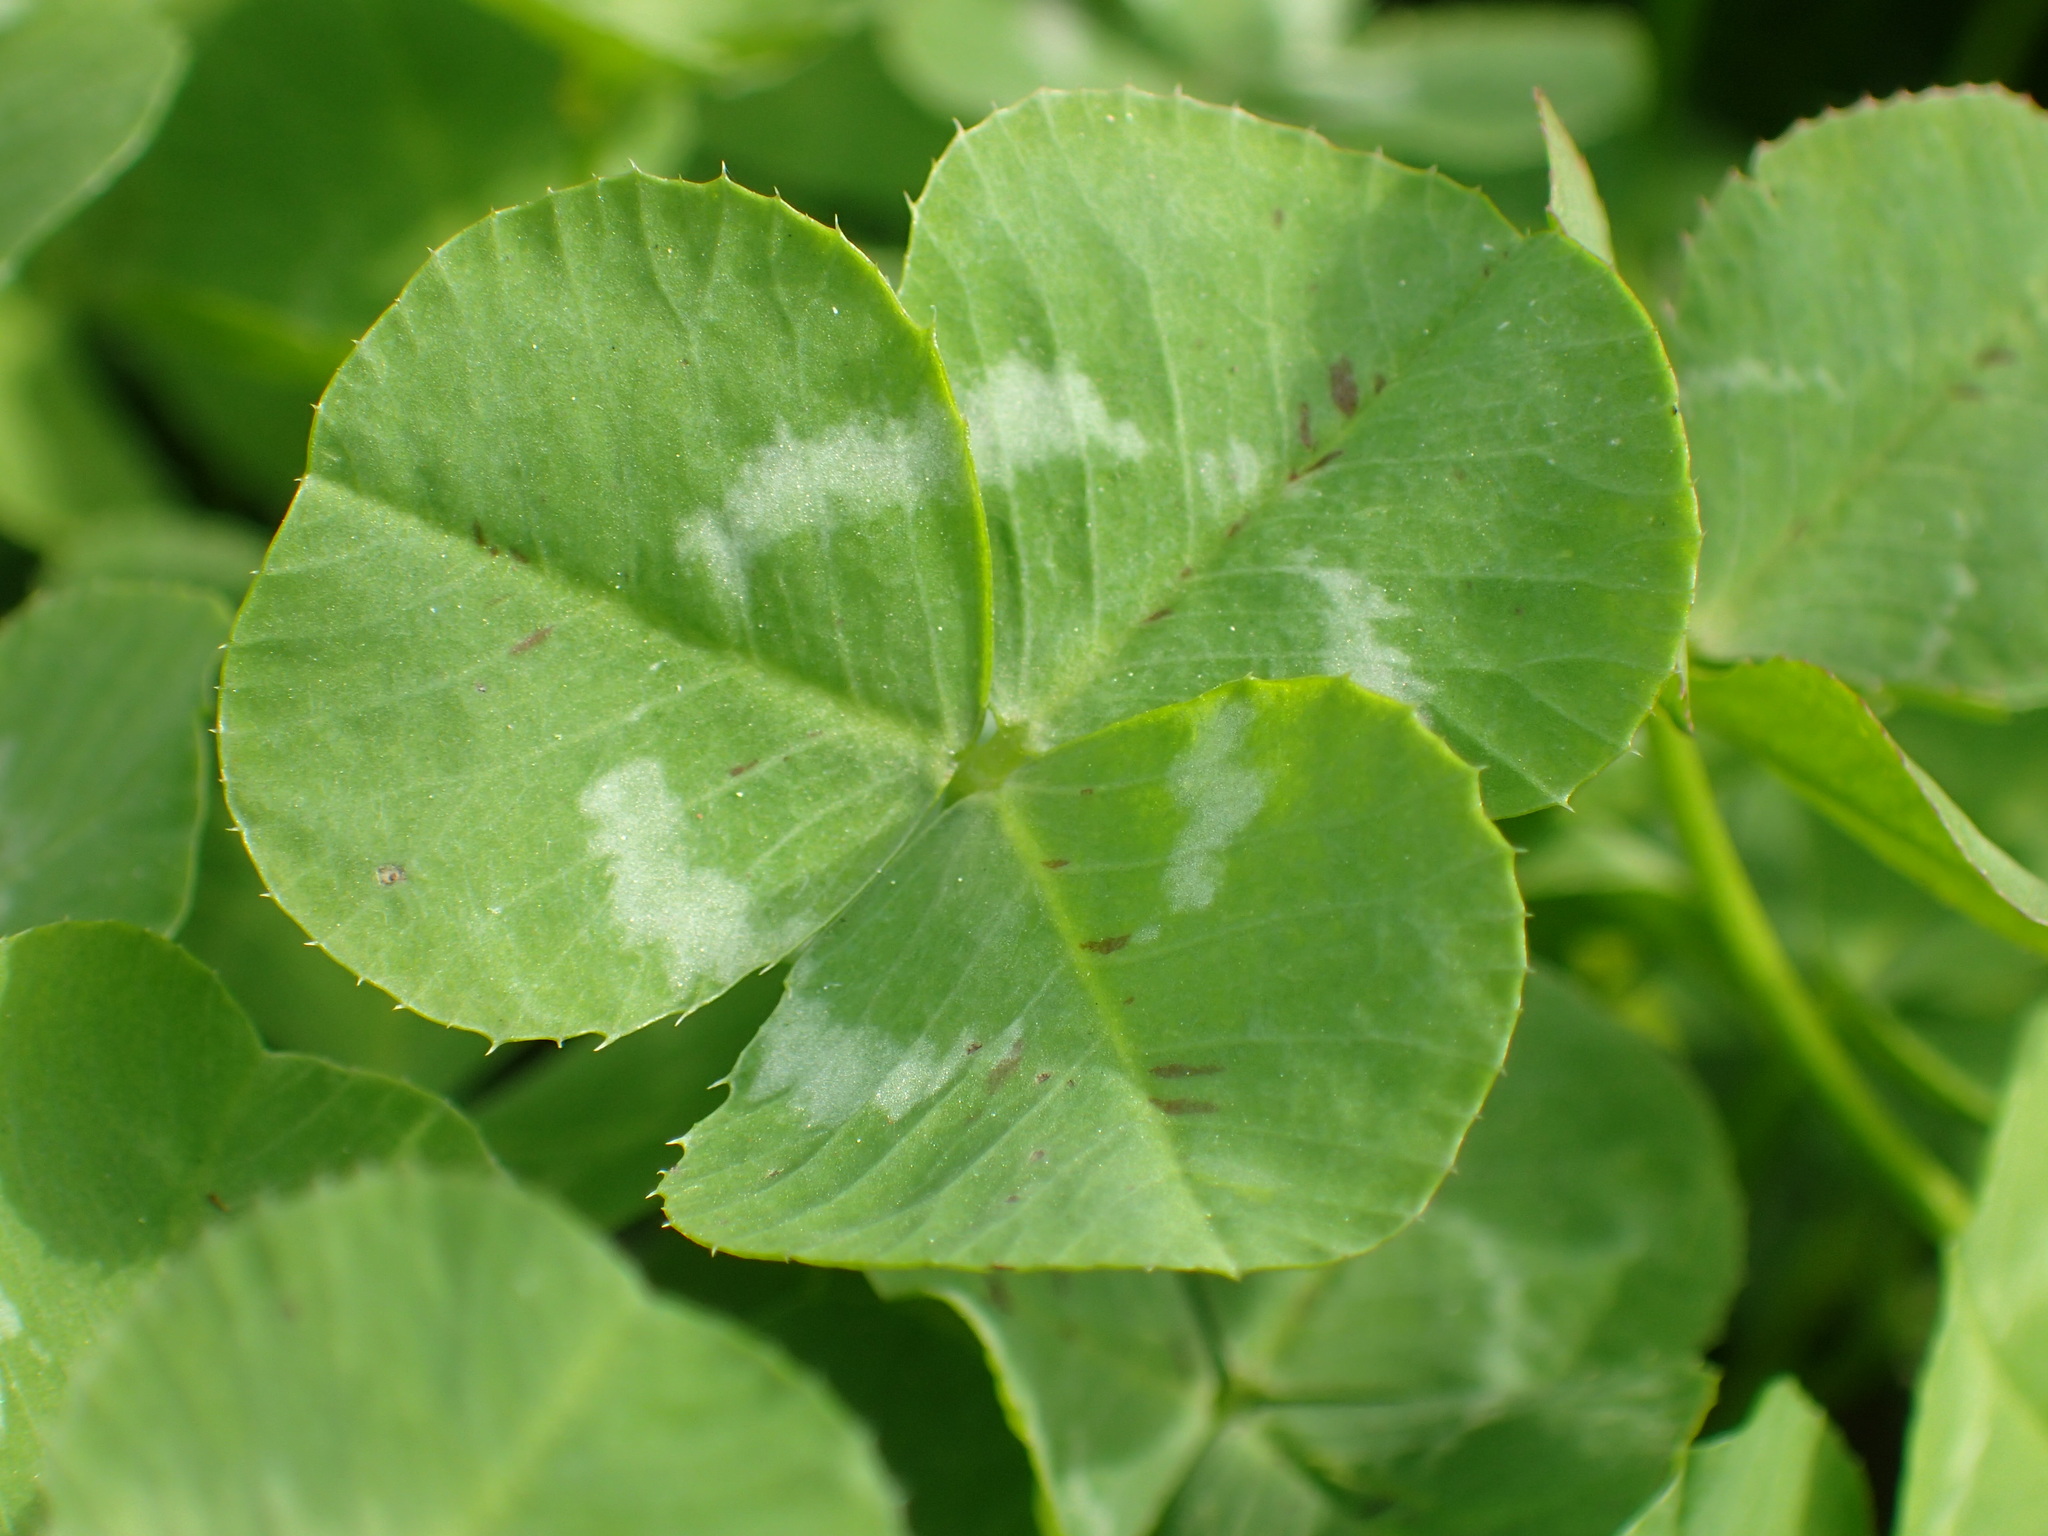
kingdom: Plantae
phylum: Tracheophyta
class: Magnoliopsida
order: Fabales
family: Fabaceae
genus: Trifolium
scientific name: Trifolium repens
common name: White clover
